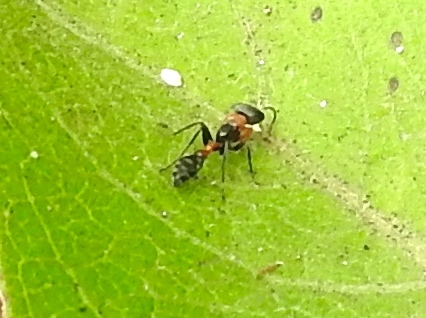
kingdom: Animalia
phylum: Arthropoda
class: Insecta
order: Hymenoptera
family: Formicidae
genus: Pseudomyrmex
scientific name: Pseudomyrmex gracilis
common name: Graceful twig ant
